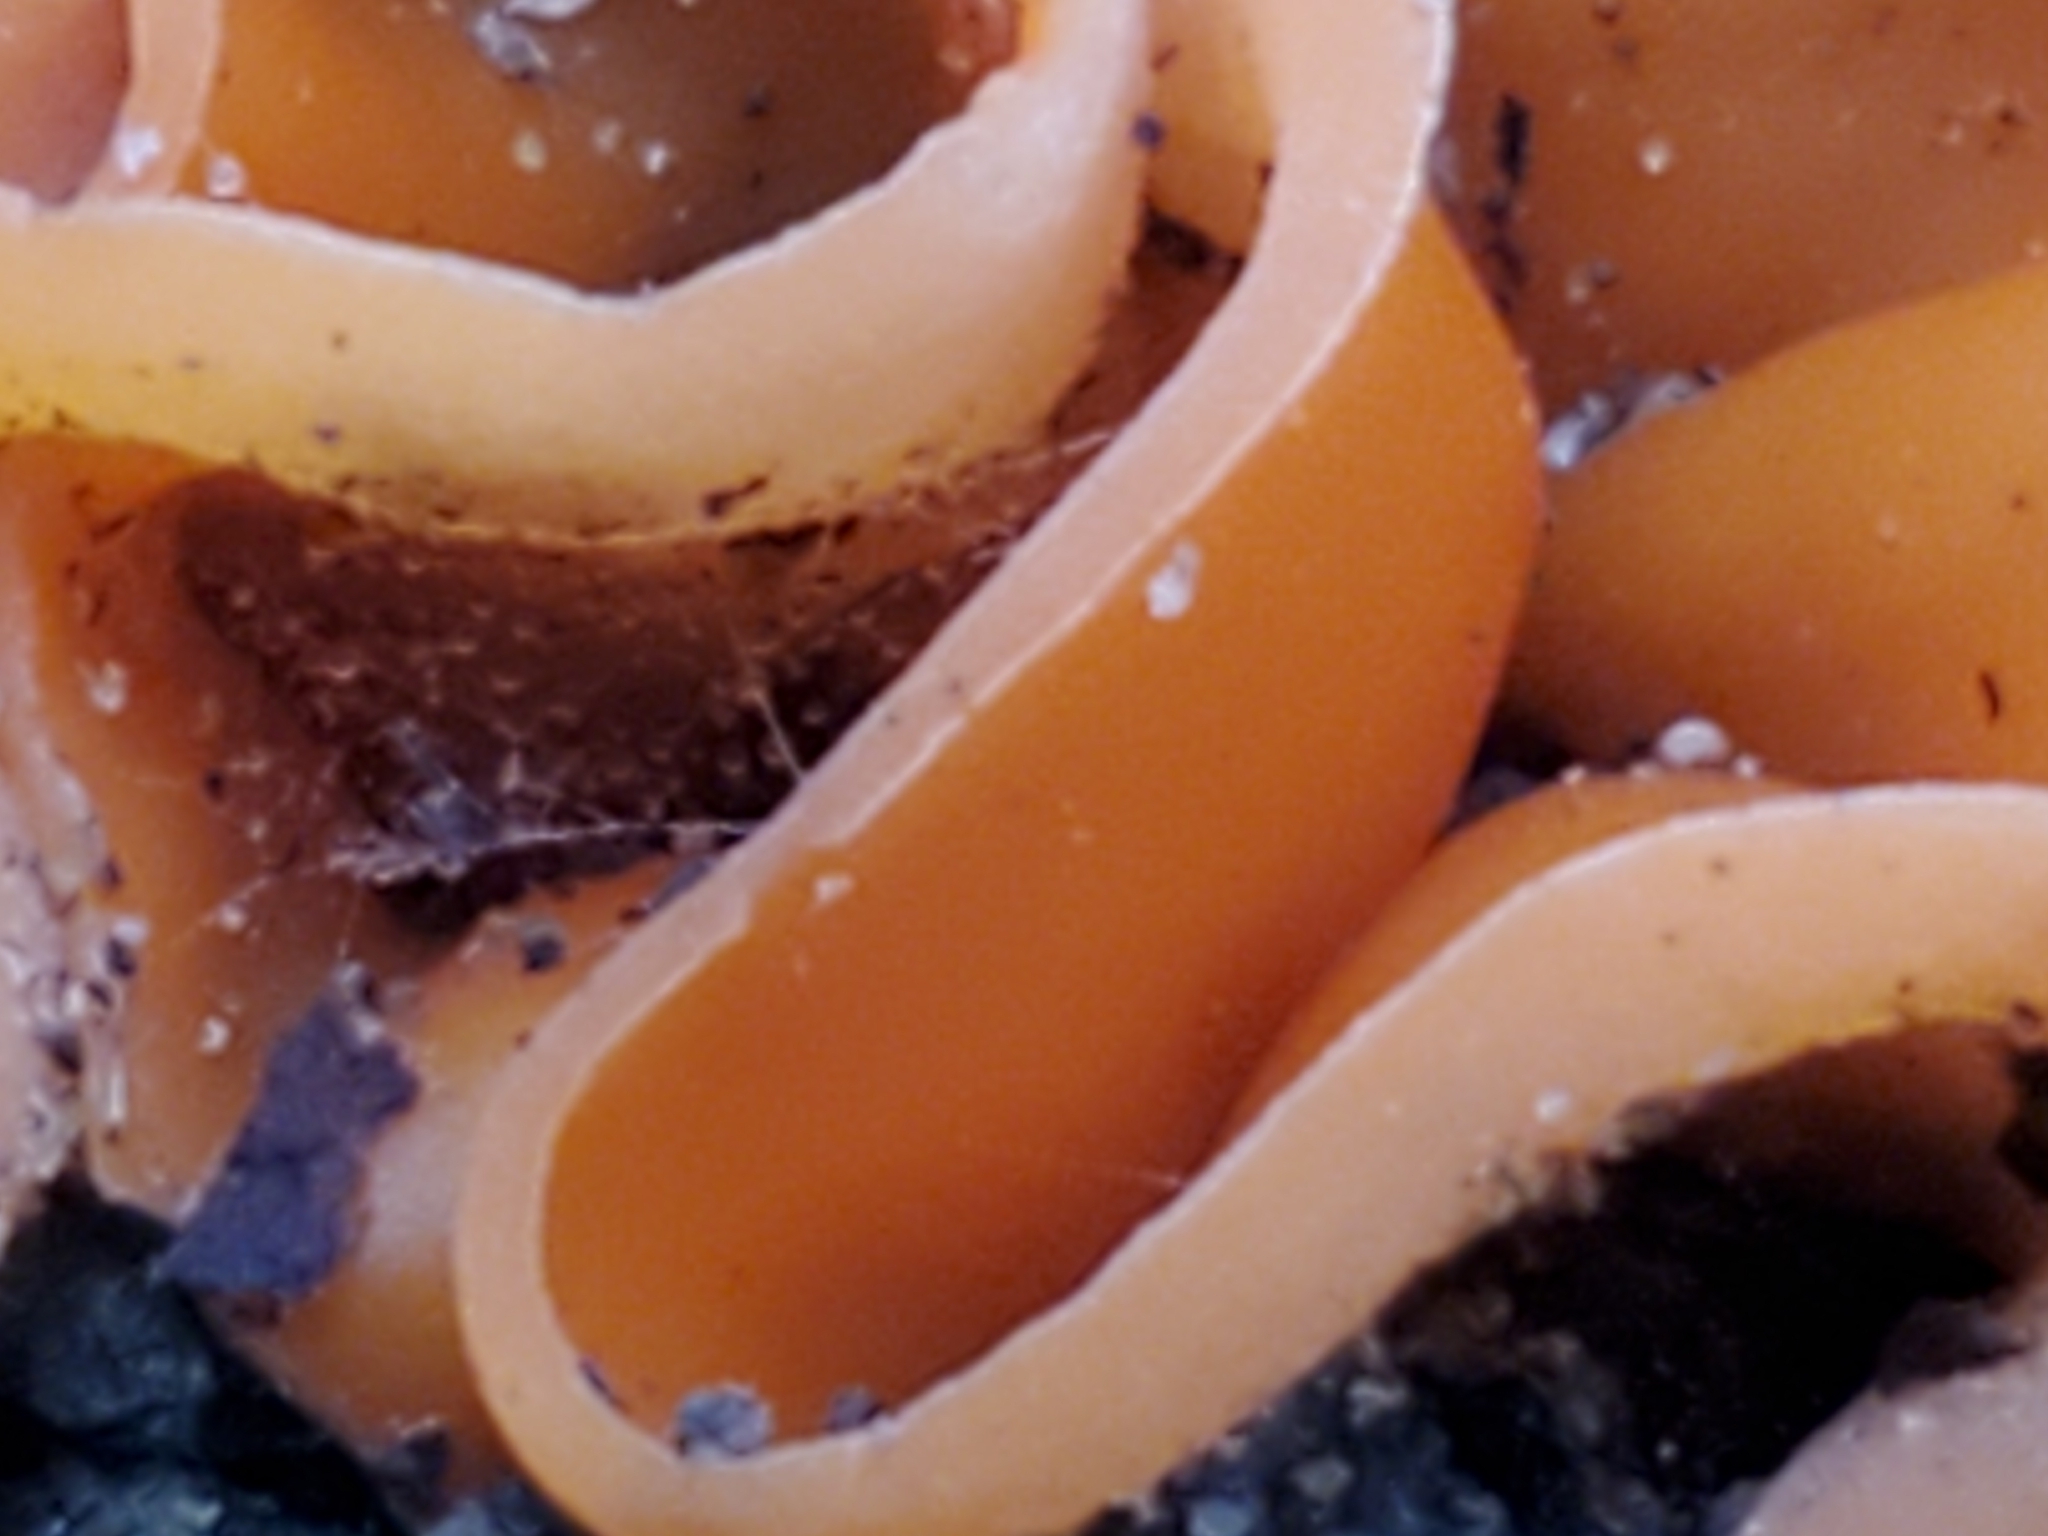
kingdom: Fungi
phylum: Ascomycota
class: Pezizomycetes
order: Pezizales
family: Pyronemataceae
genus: Aleuria
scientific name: Aleuria aurantia
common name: Orange peel fungus
